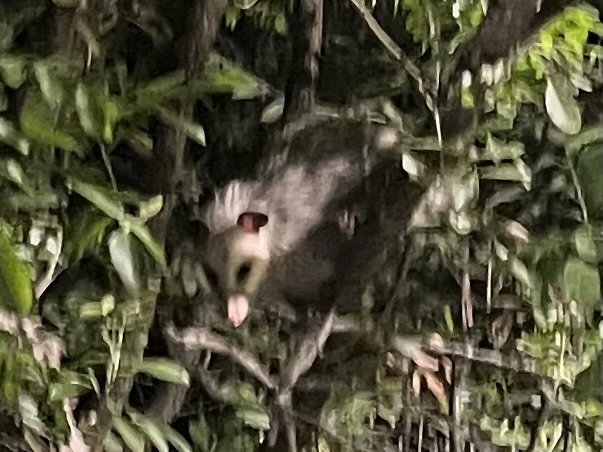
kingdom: Animalia
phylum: Chordata
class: Mammalia
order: Didelphimorphia
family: Didelphidae
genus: Didelphis
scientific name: Didelphis virginiana
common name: Virginia opossum
